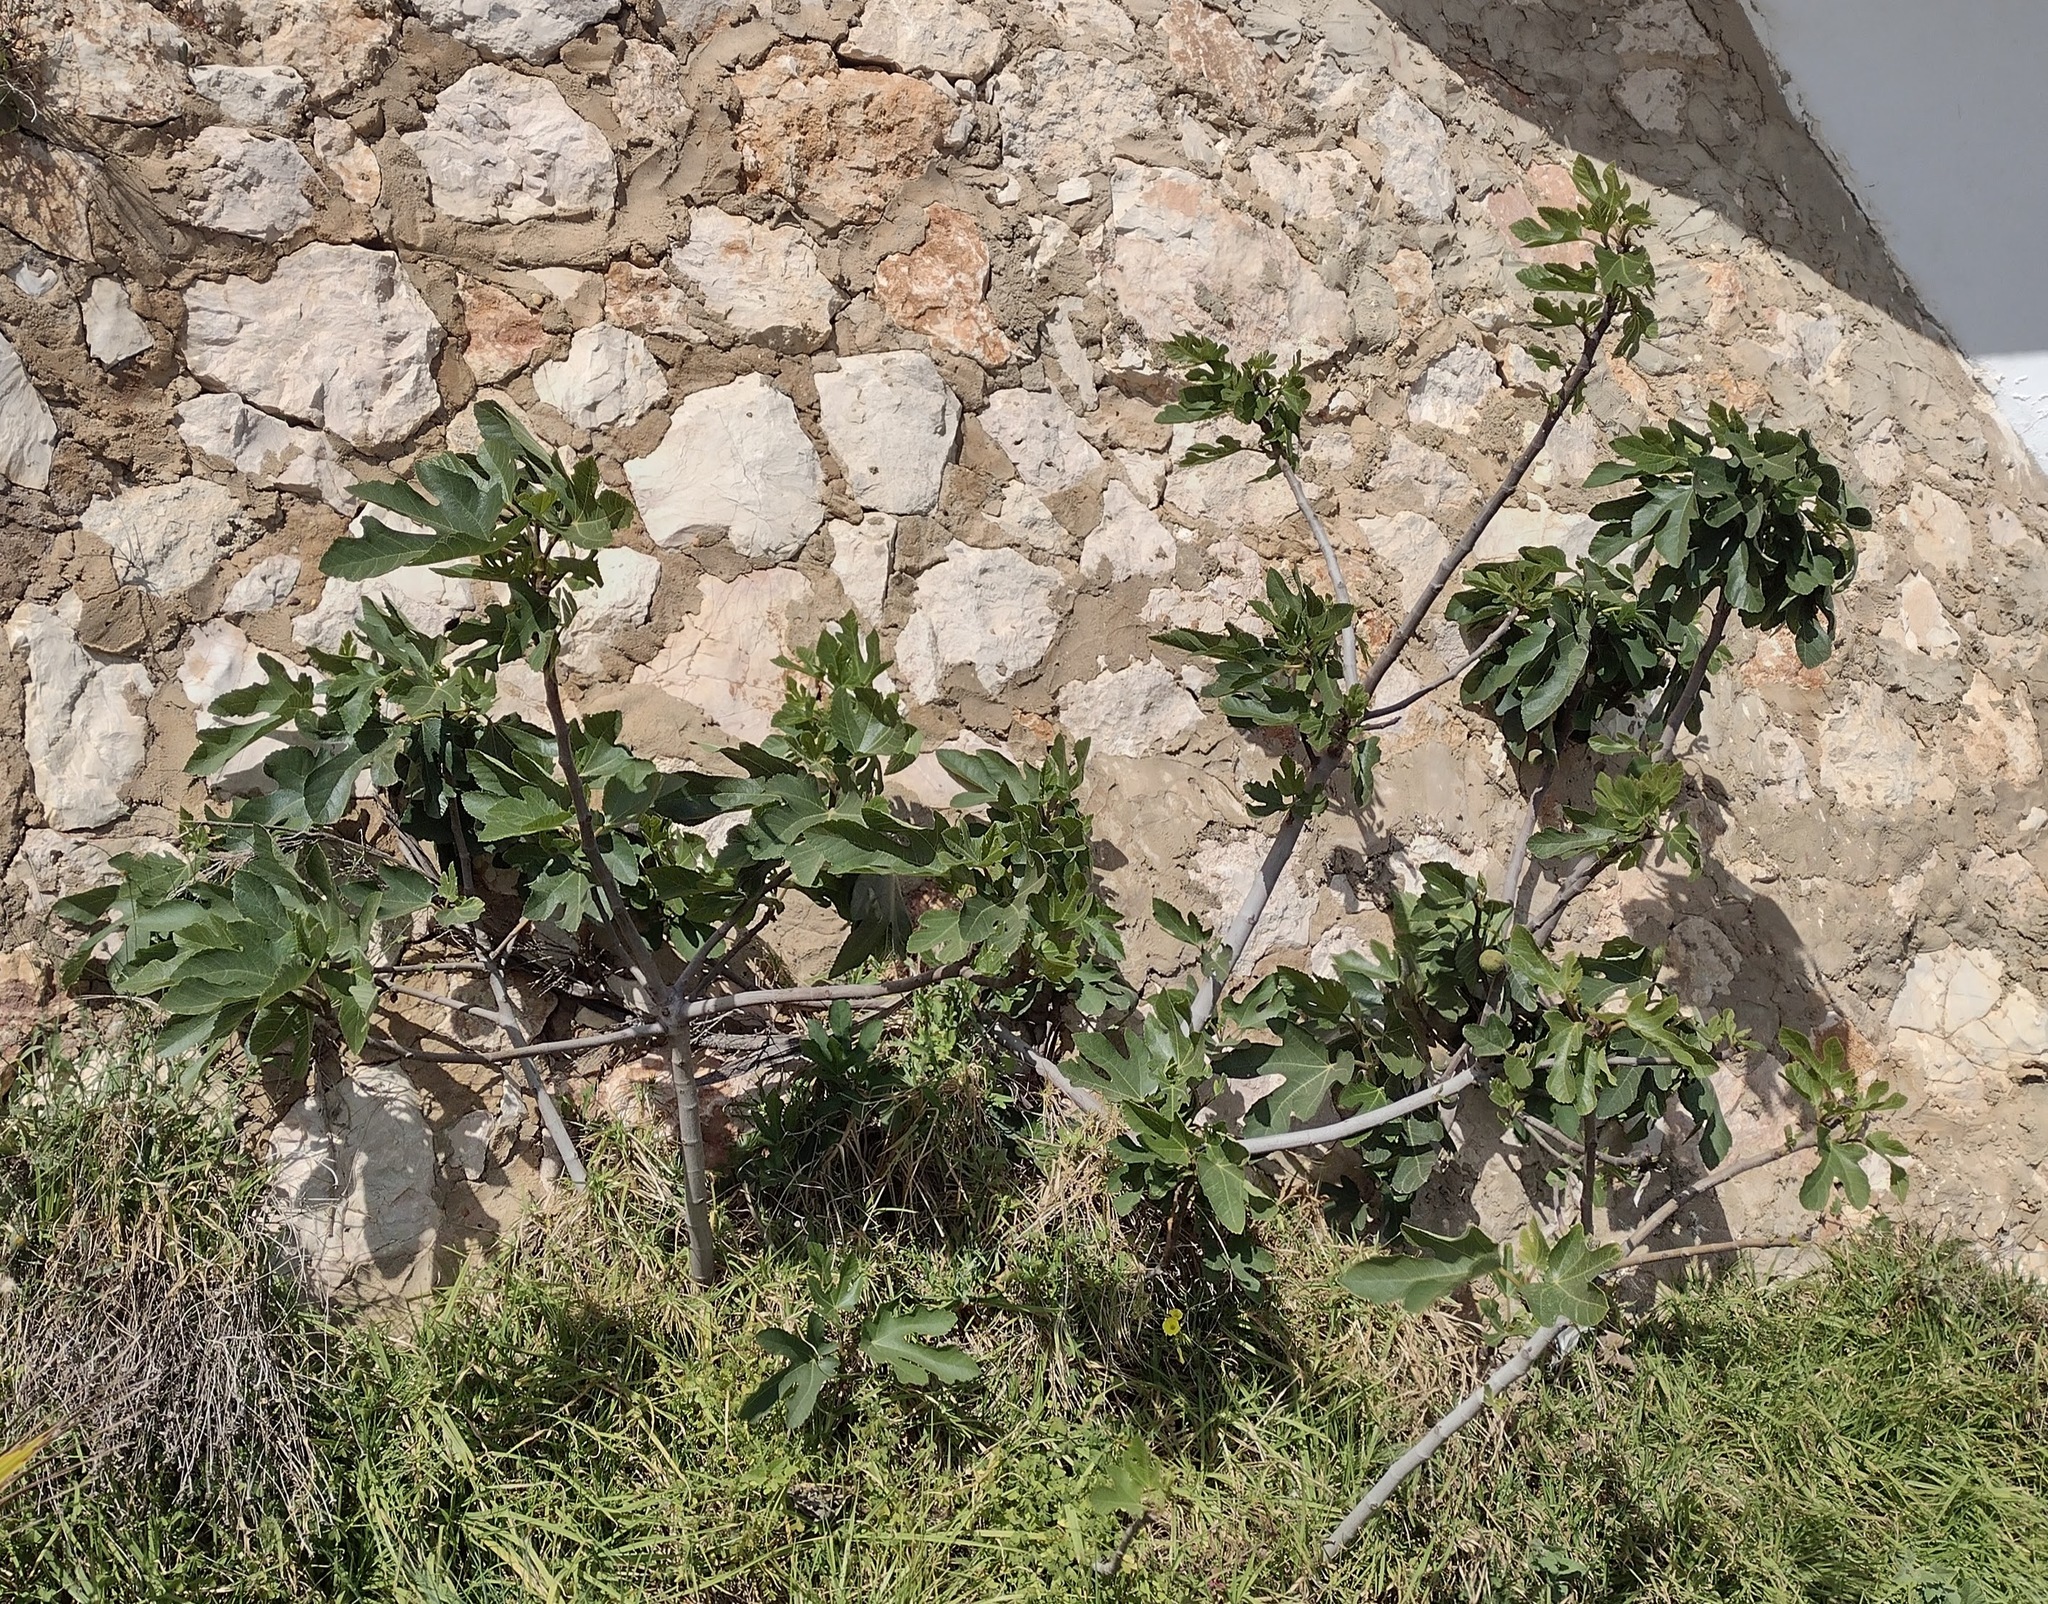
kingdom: Plantae
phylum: Tracheophyta
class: Magnoliopsida
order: Rosales
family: Moraceae
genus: Ficus
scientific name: Ficus carica
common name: Fig
